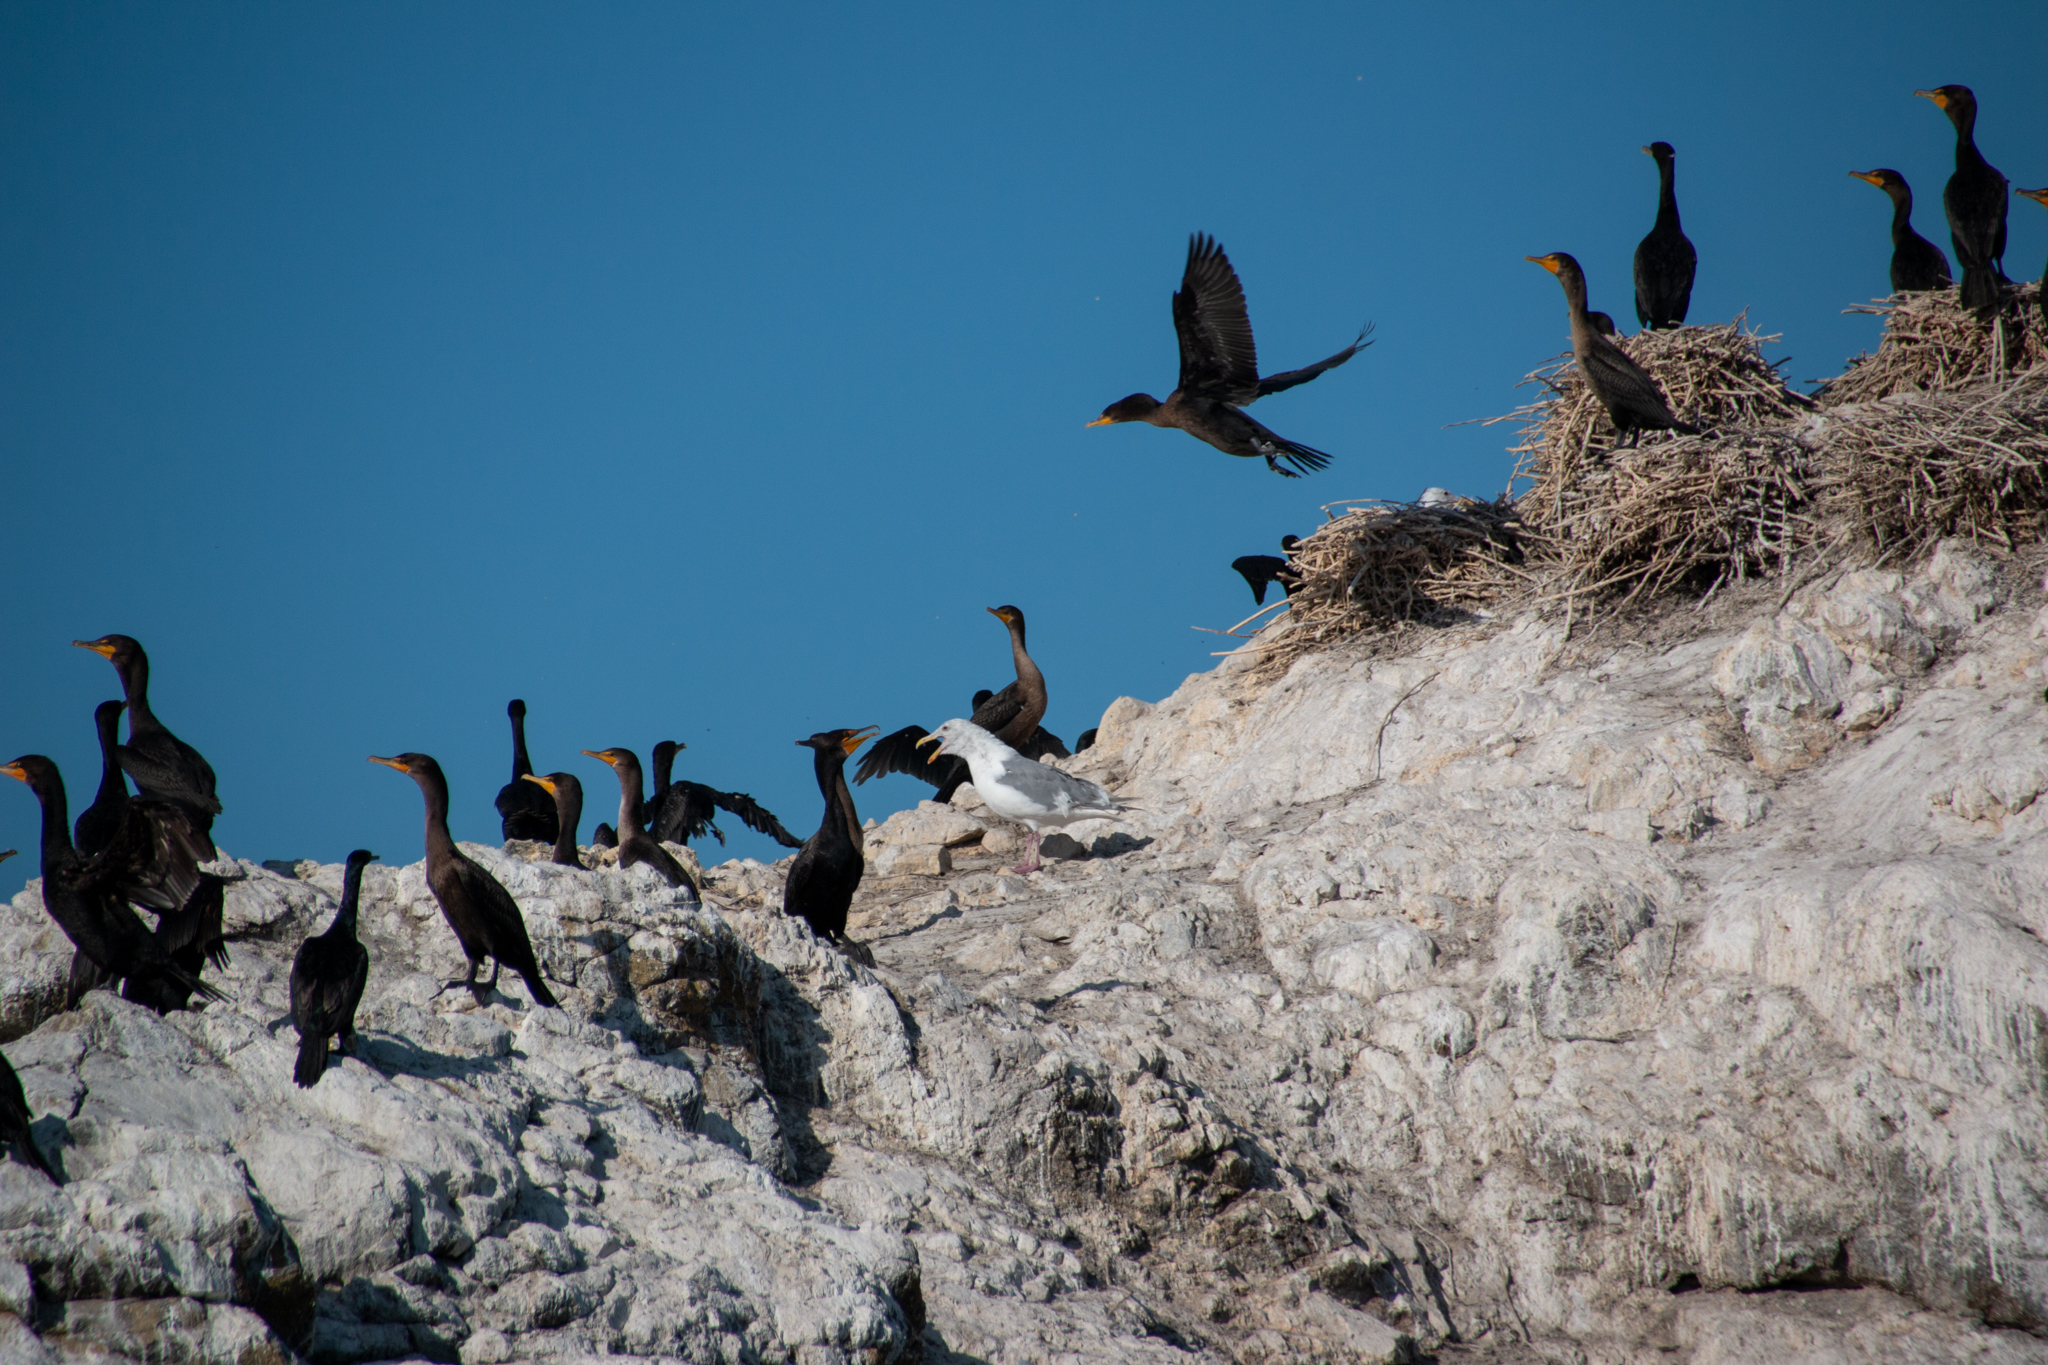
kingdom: Animalia
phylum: Chordata
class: Aves
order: Suliformes
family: Phalacrocoracidae
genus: Phalacrocorax
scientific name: Phalacrocorax auritus
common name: Double-crested cormorant
